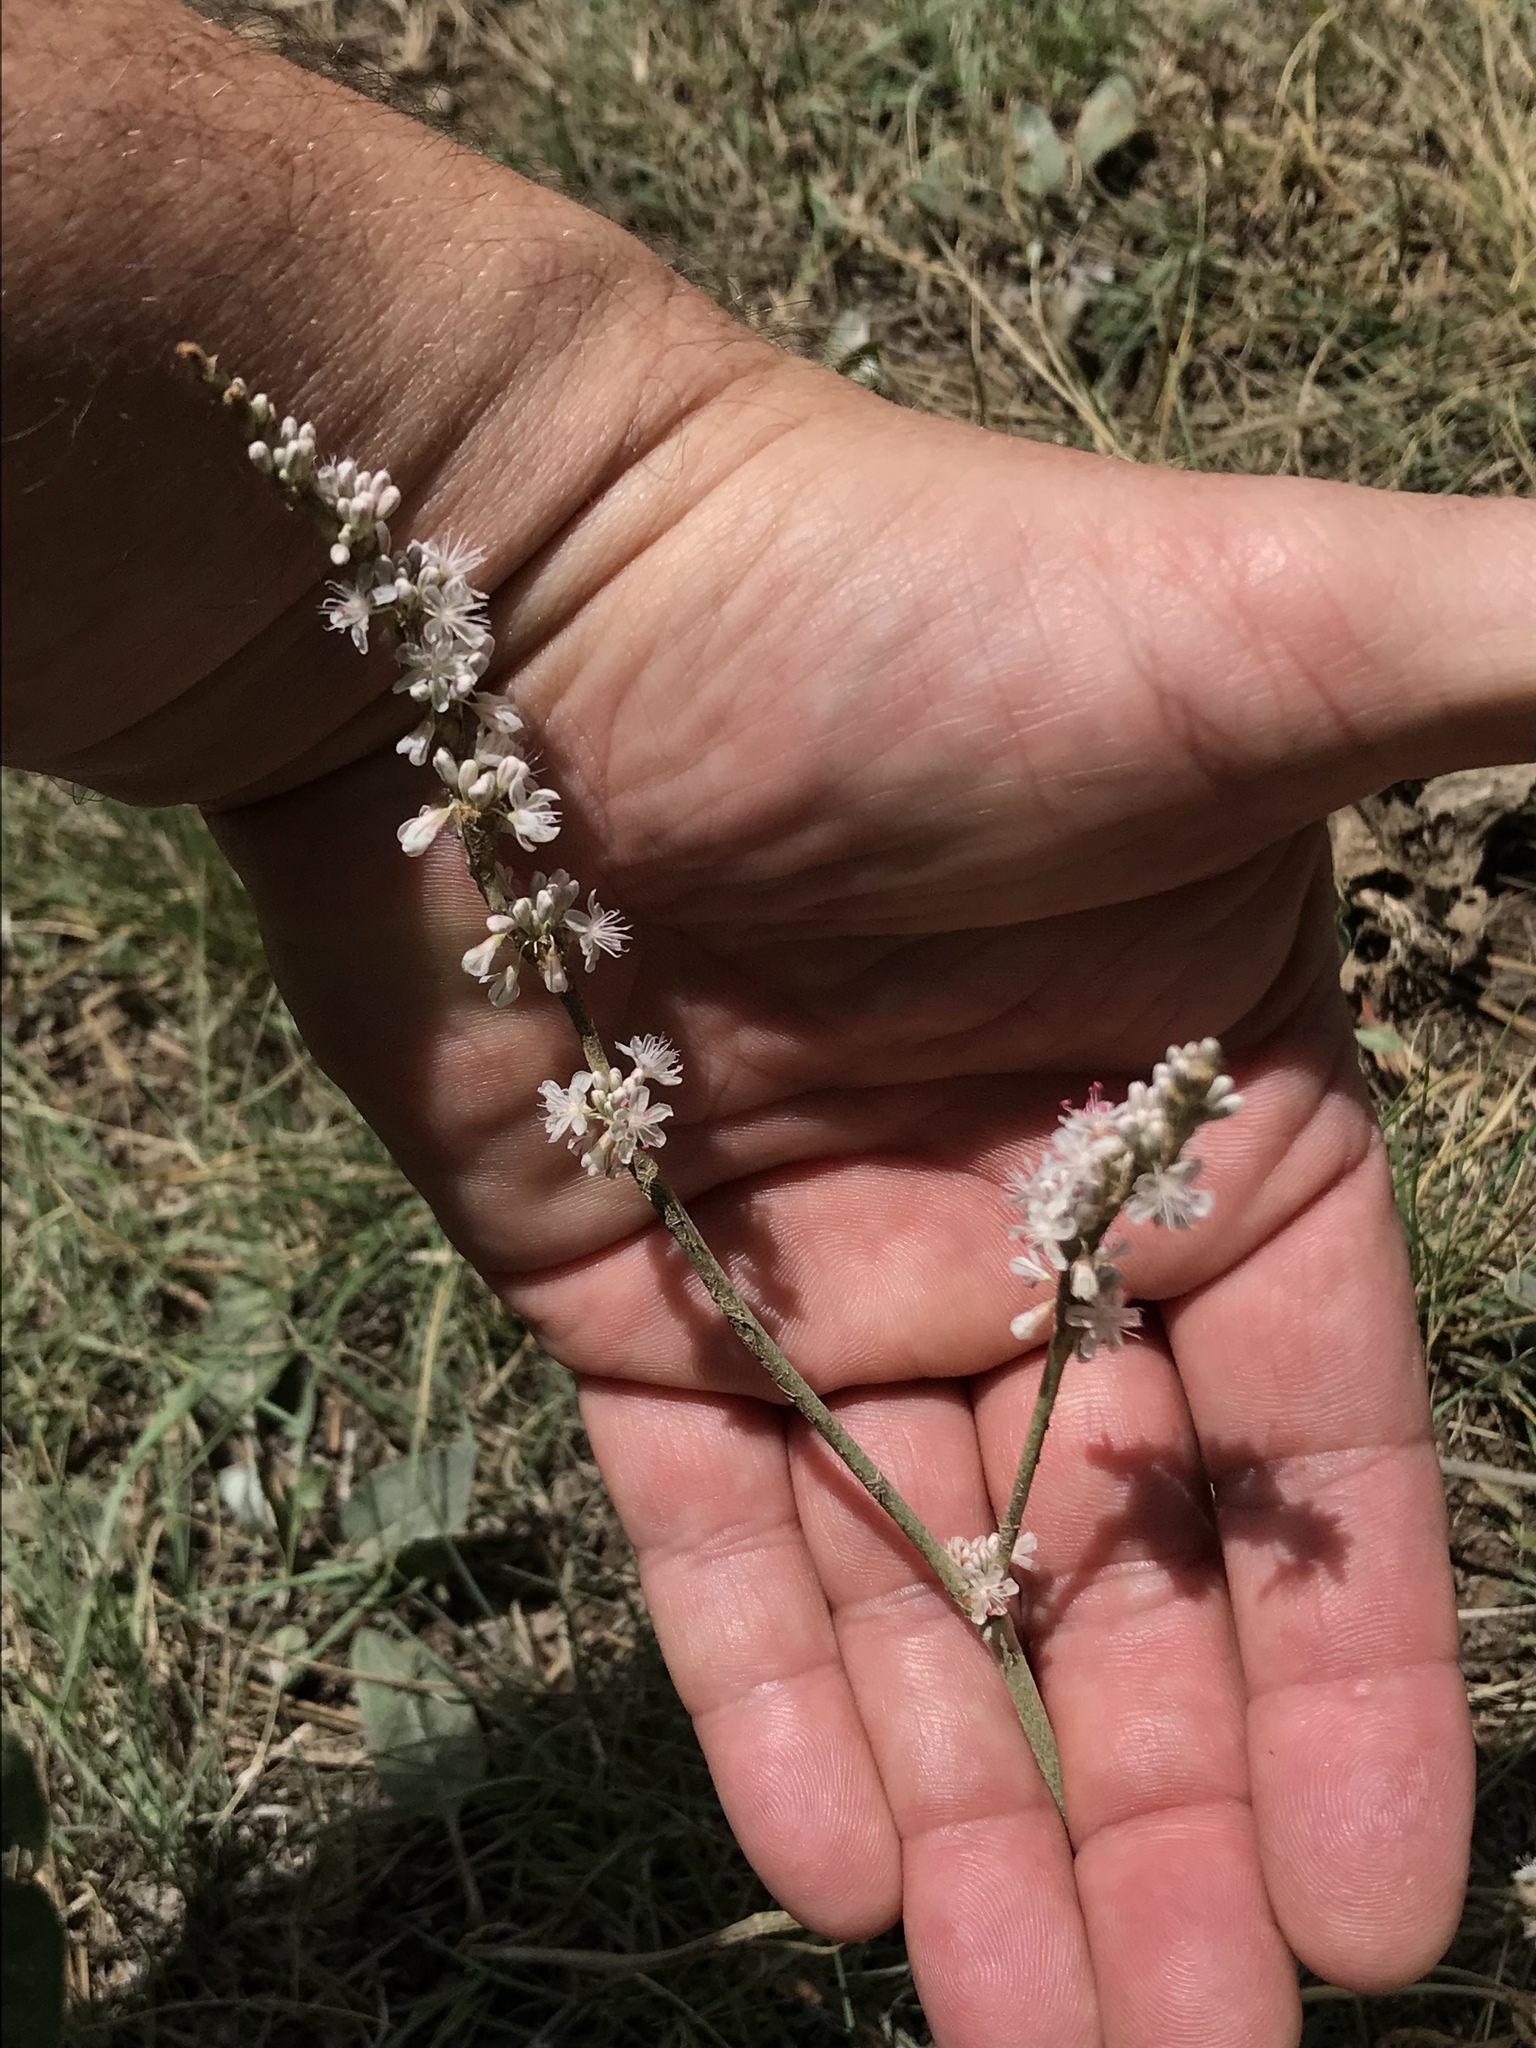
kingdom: Plantae
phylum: Tracheophyta
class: Magnoliopsida
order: Caryophyllales
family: Polygonaceae
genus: Eriogonum
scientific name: Eriogonum racemosum
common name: Redroot wild buckwheat
